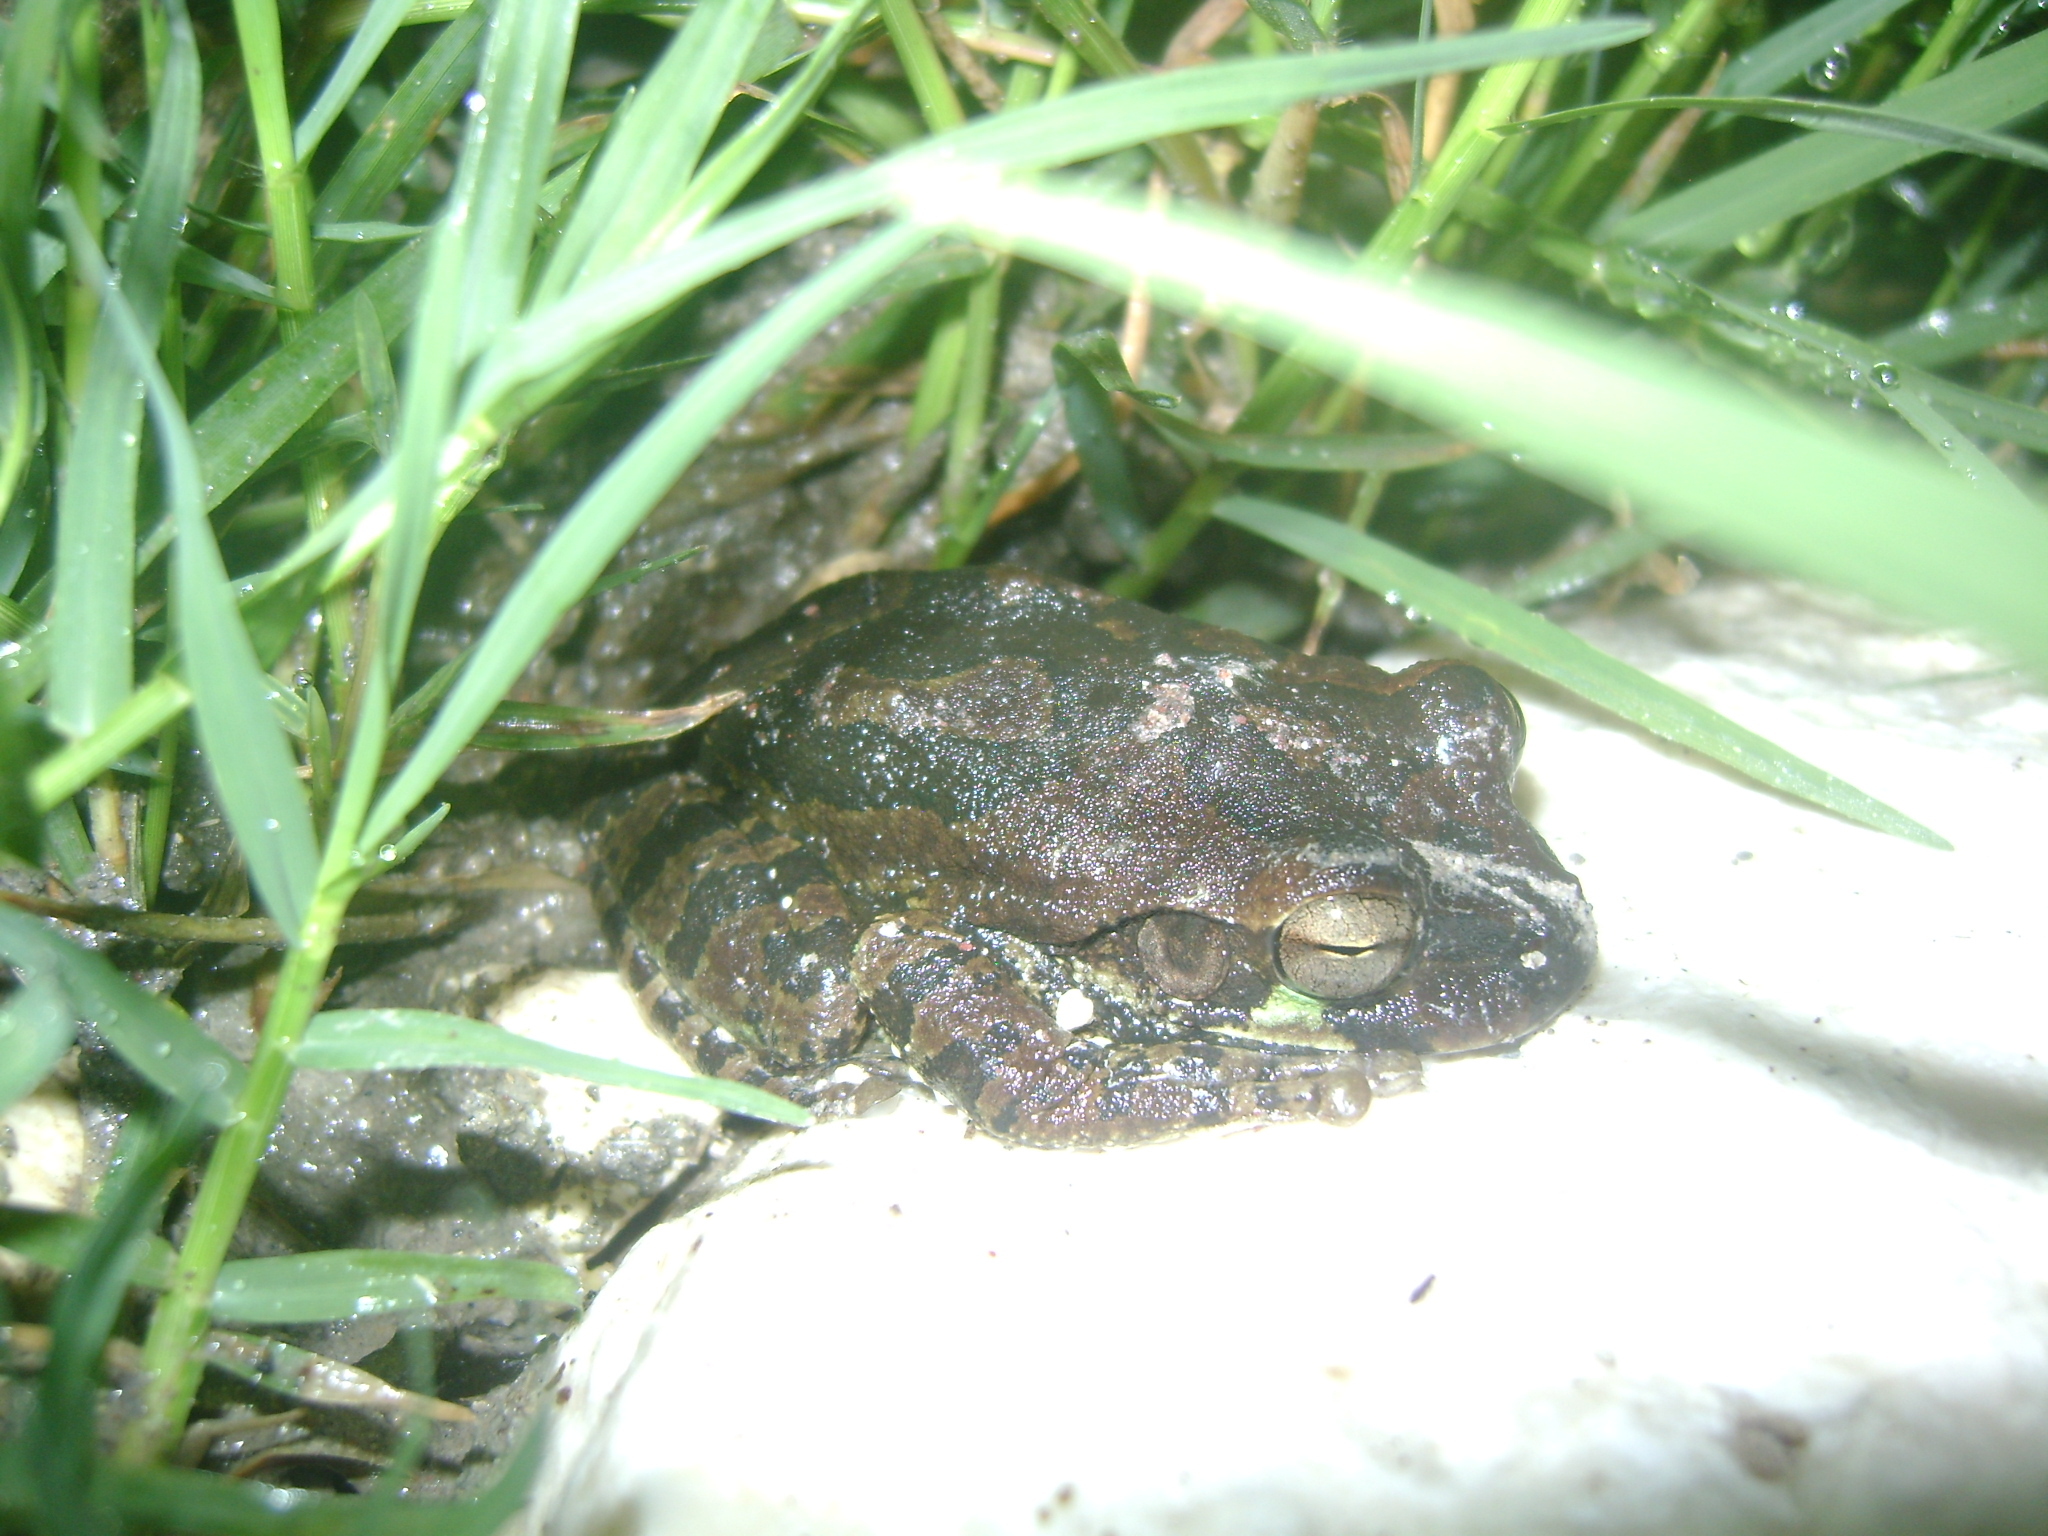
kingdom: Animalia
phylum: Chordata
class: Amphibia
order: Anura
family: Hylidae
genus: Smilisca
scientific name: Smilisca baudinii
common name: Mexican smilisca
